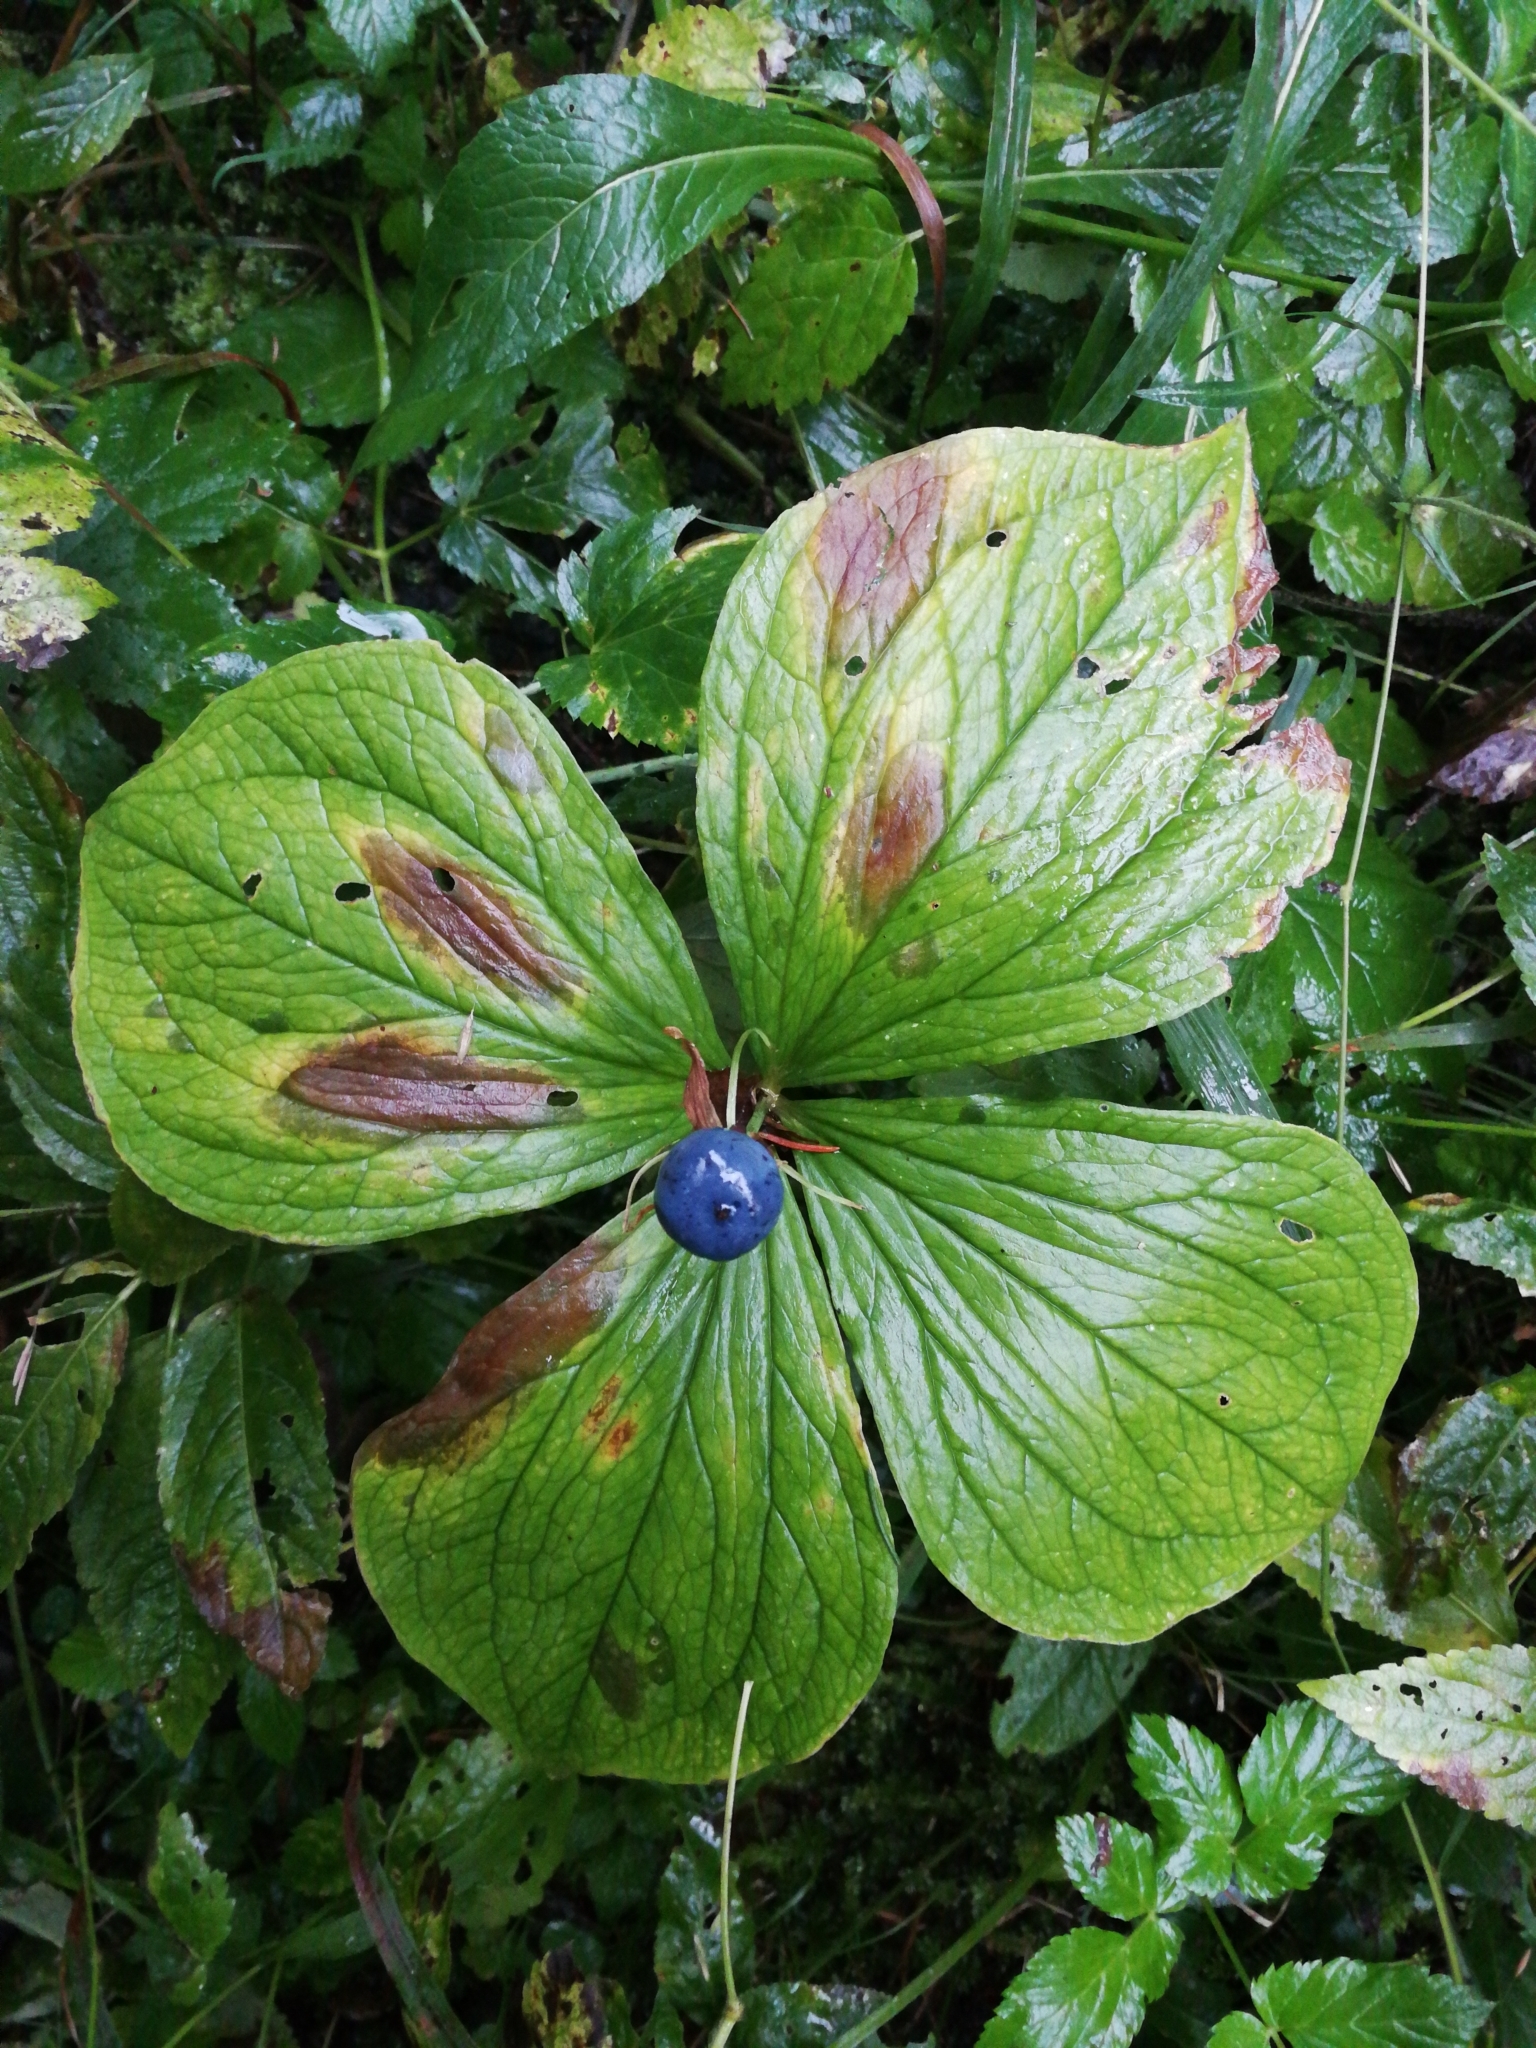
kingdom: Plantae
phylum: Tracheophyta
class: Liliopsida
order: Liliales
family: Melanthiaceae
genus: Paris
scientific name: Paris quadrifolia
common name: Herb-paris
